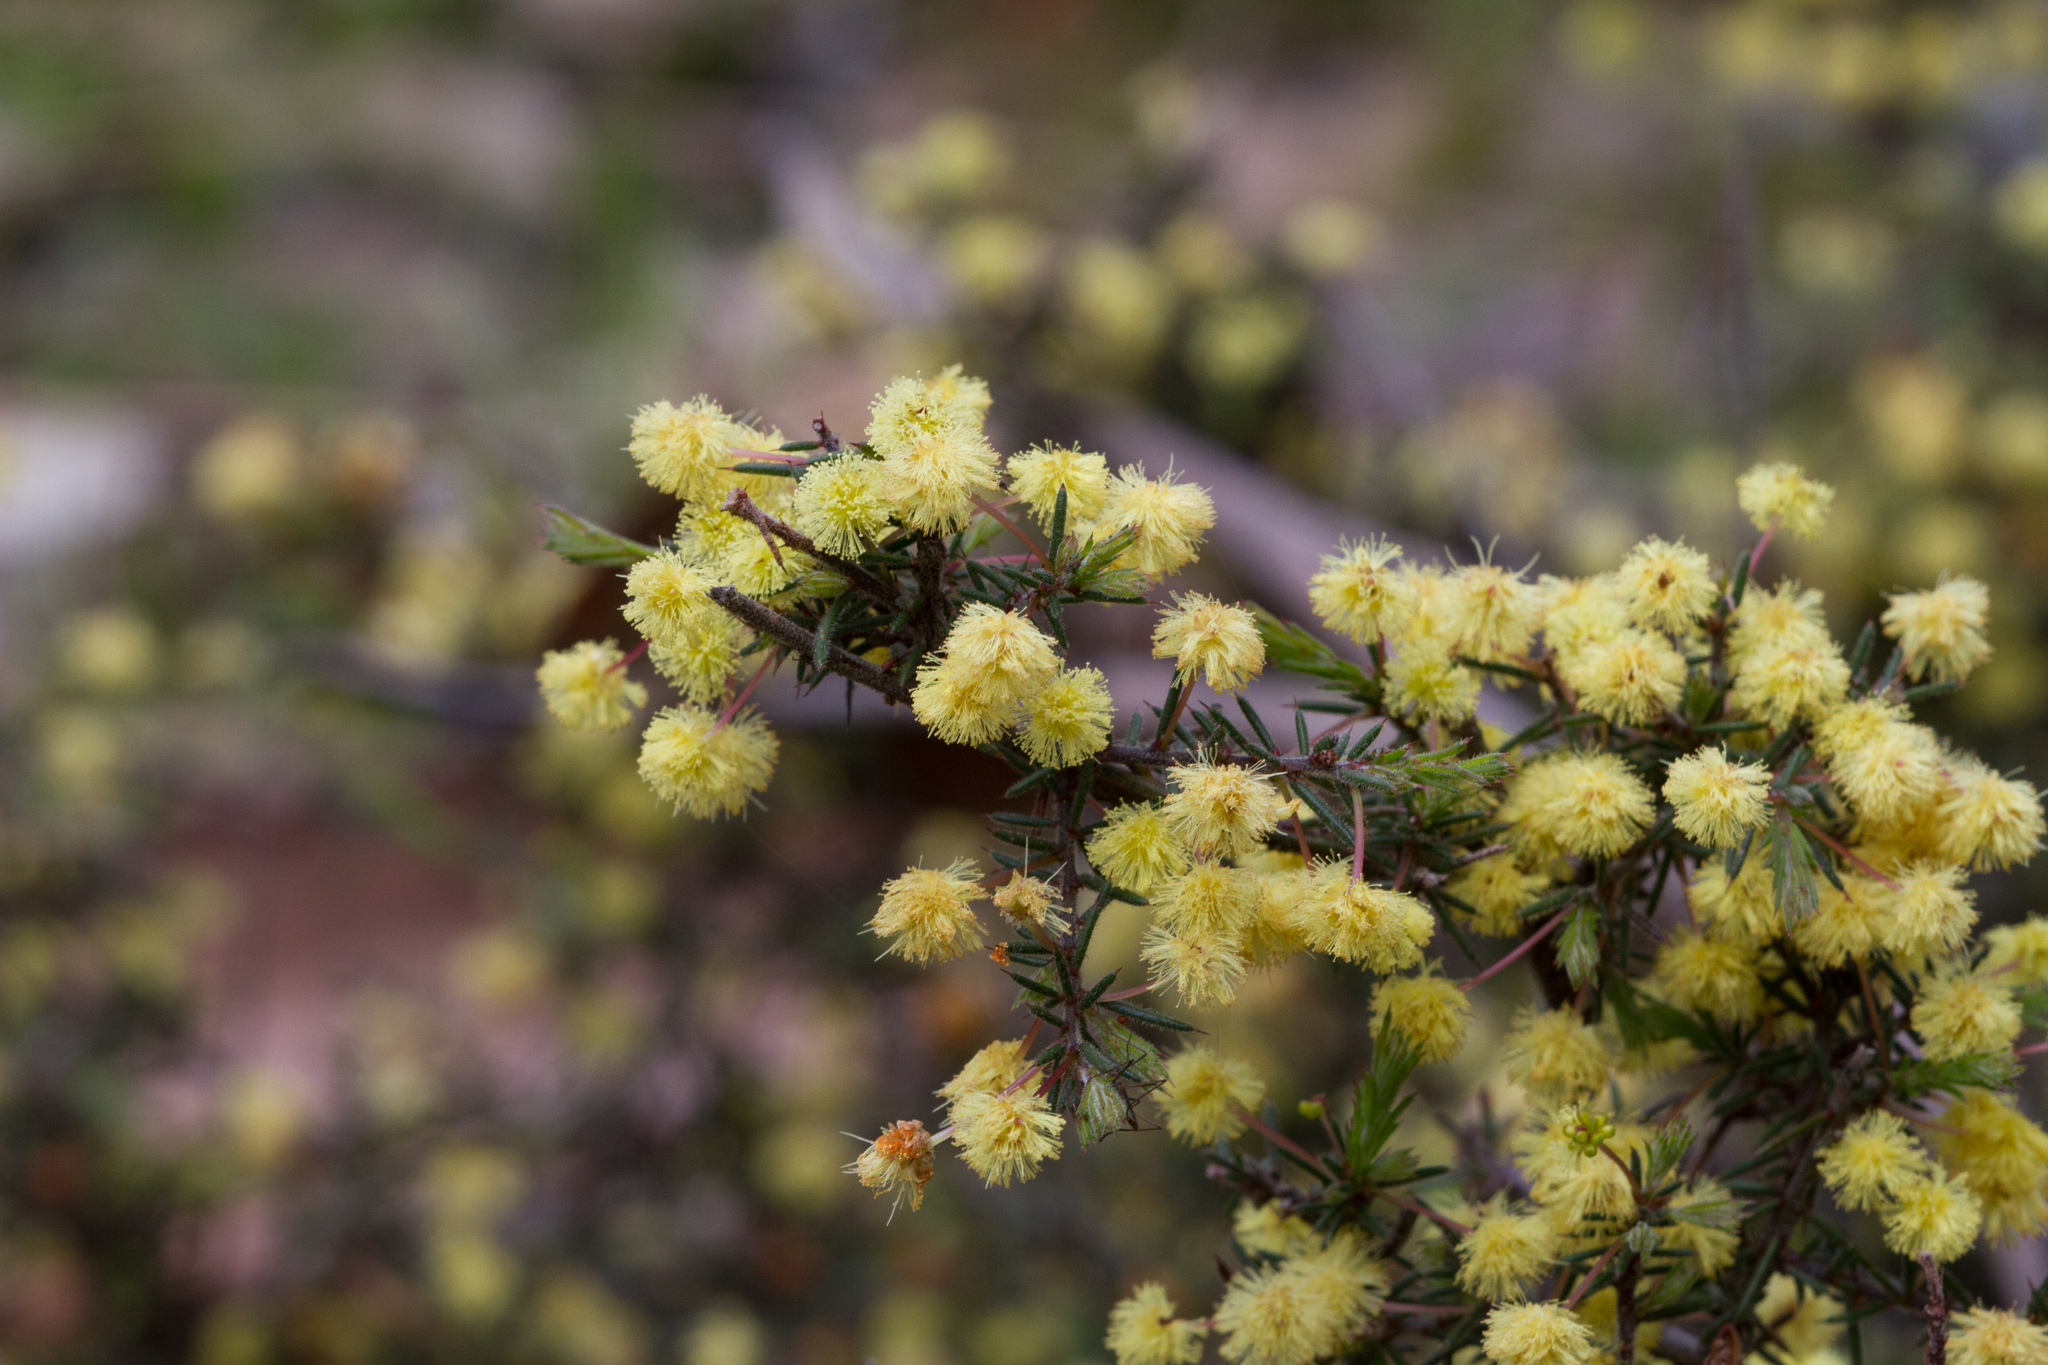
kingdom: Plantae
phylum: Tracheophyta
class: Magnoliopsida
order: Fabales
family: Fabaceae
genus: Acacia
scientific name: Acacia aculeatissima
